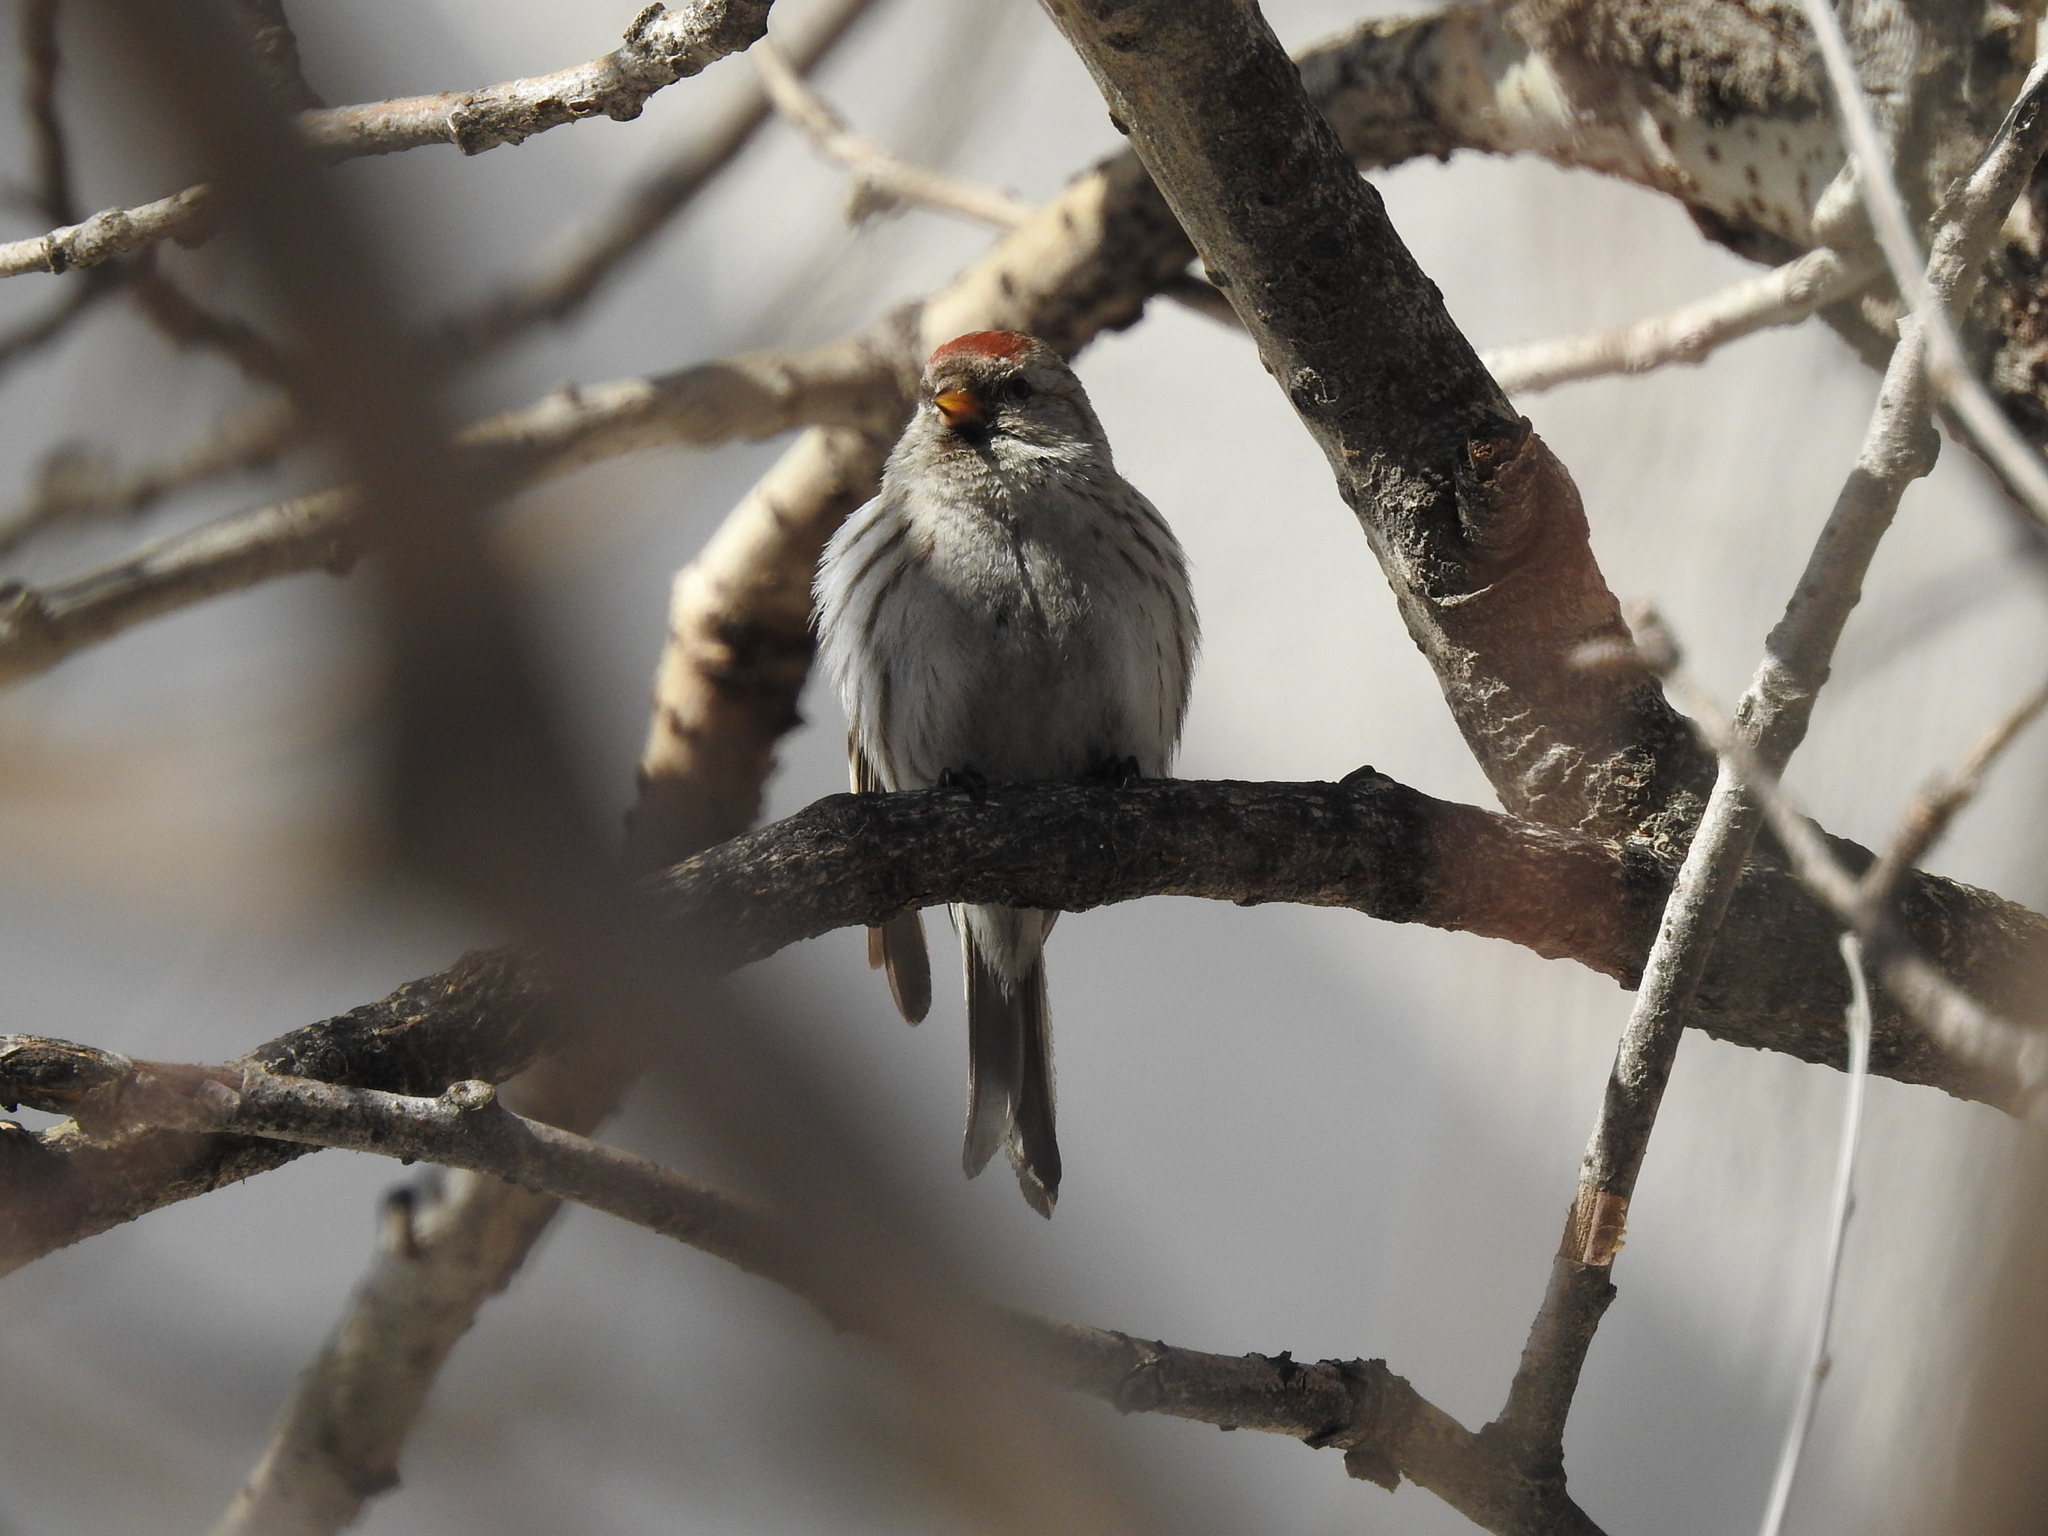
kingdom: Animalia
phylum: Chordata
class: Aves
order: Passeriformes
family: Fringillidae
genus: Acanthis
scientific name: Acanthis flammea
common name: Common redpoll
